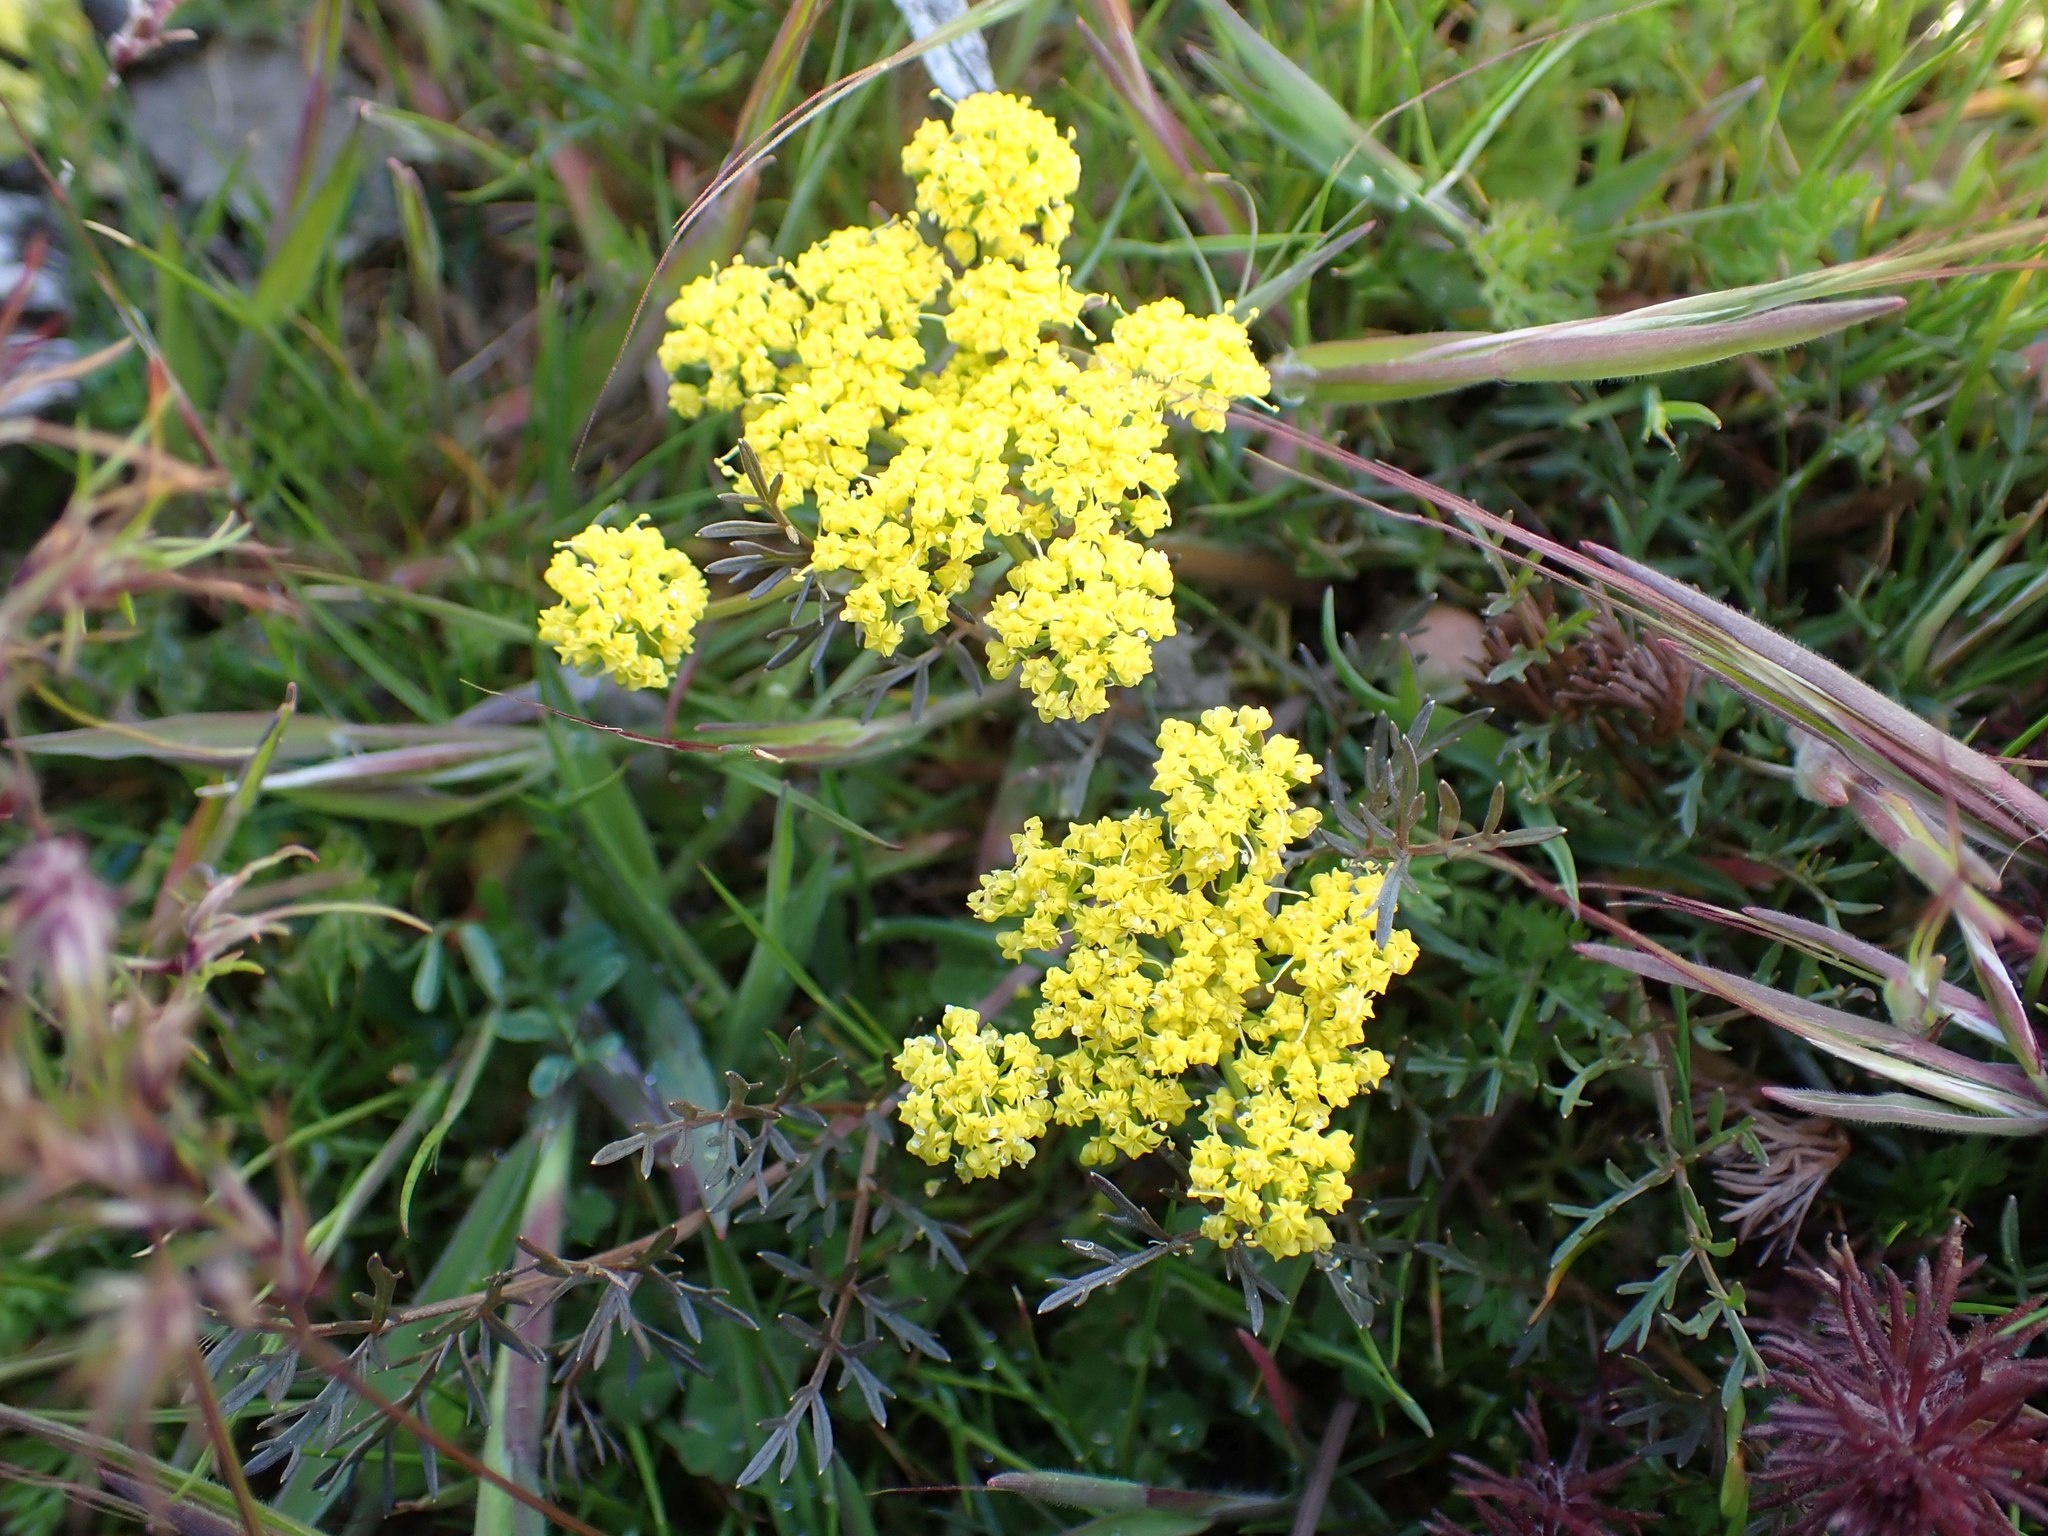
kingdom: Plantae
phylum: Tracheophyta
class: Magnoliopsida
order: Apiales
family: Apiaceae
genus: Lomatium
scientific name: Lomatium utriculatum
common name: Fine-leaf desert-parsley
